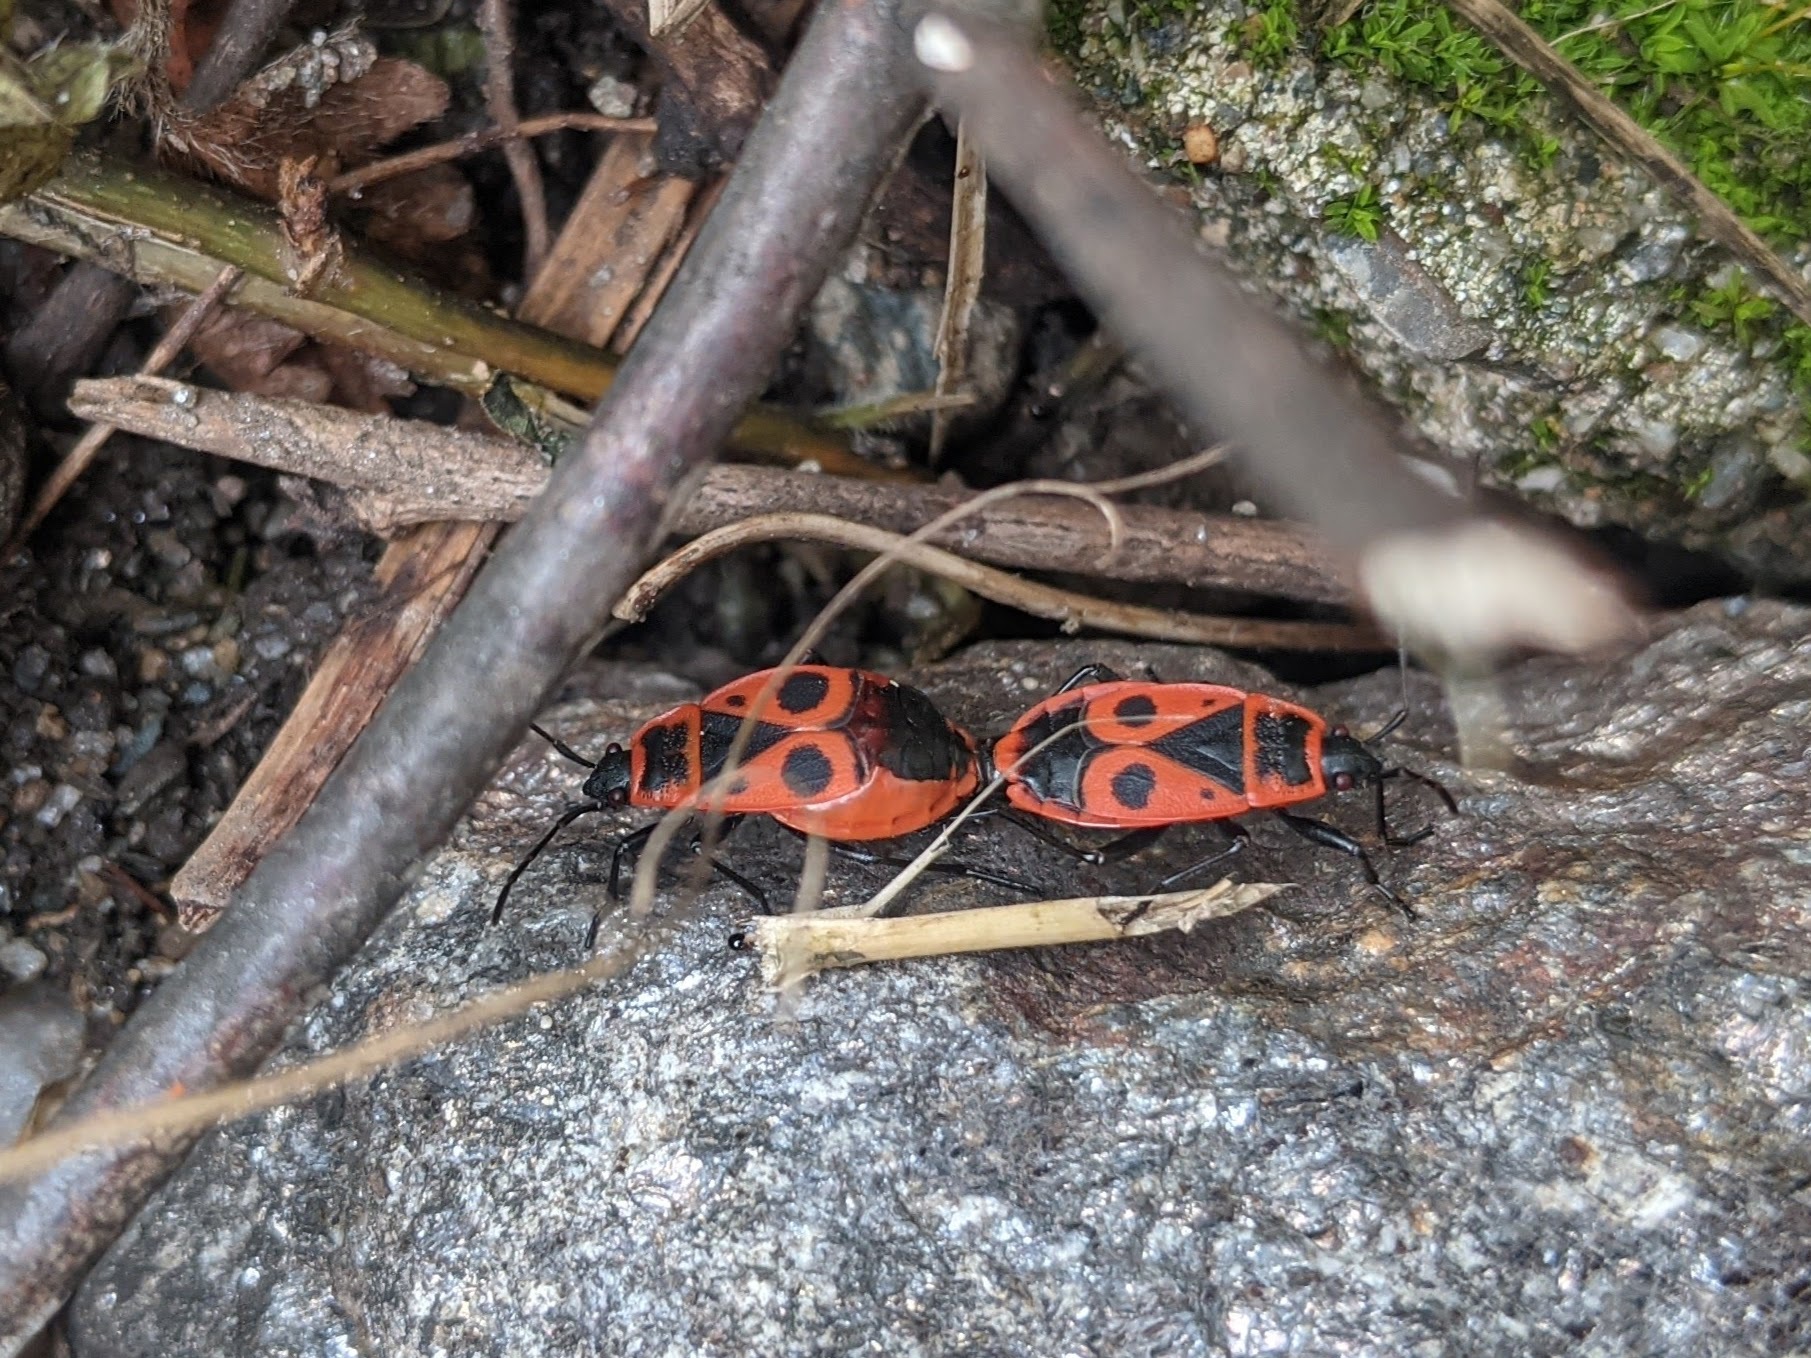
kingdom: Animalia
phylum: Arthropoda
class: Insecta
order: Hemiptera
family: Pyrrhocoridae
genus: Pyrrhocoris
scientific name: Pyrrhocoris apterus
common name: Firebug
